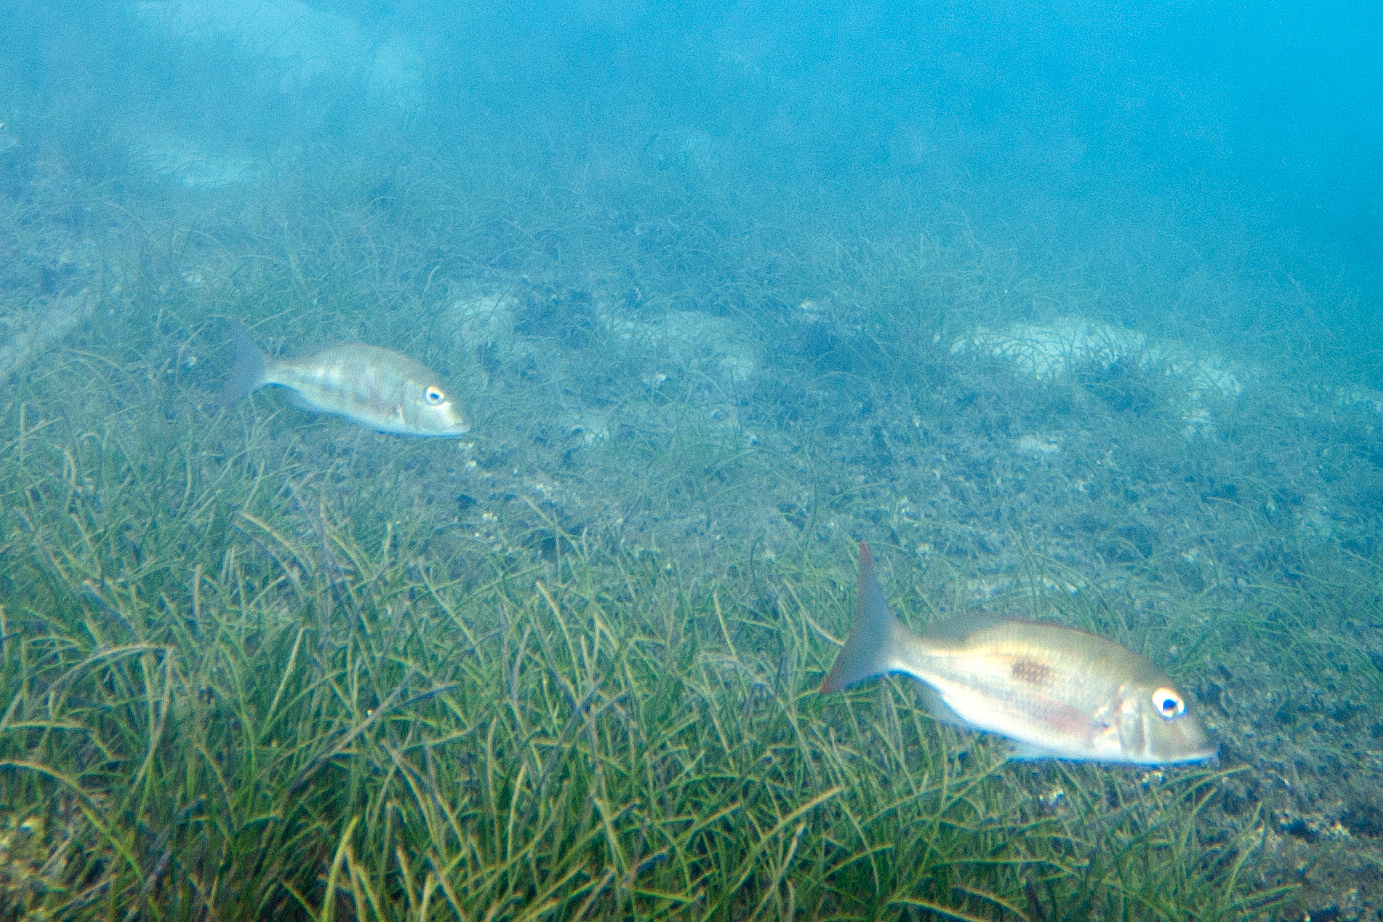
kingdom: Animalia
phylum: Chordata
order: Perciformes
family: Lethrinidae
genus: Lethrinus
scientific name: Lethrinus harak
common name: Blackspot emperor
